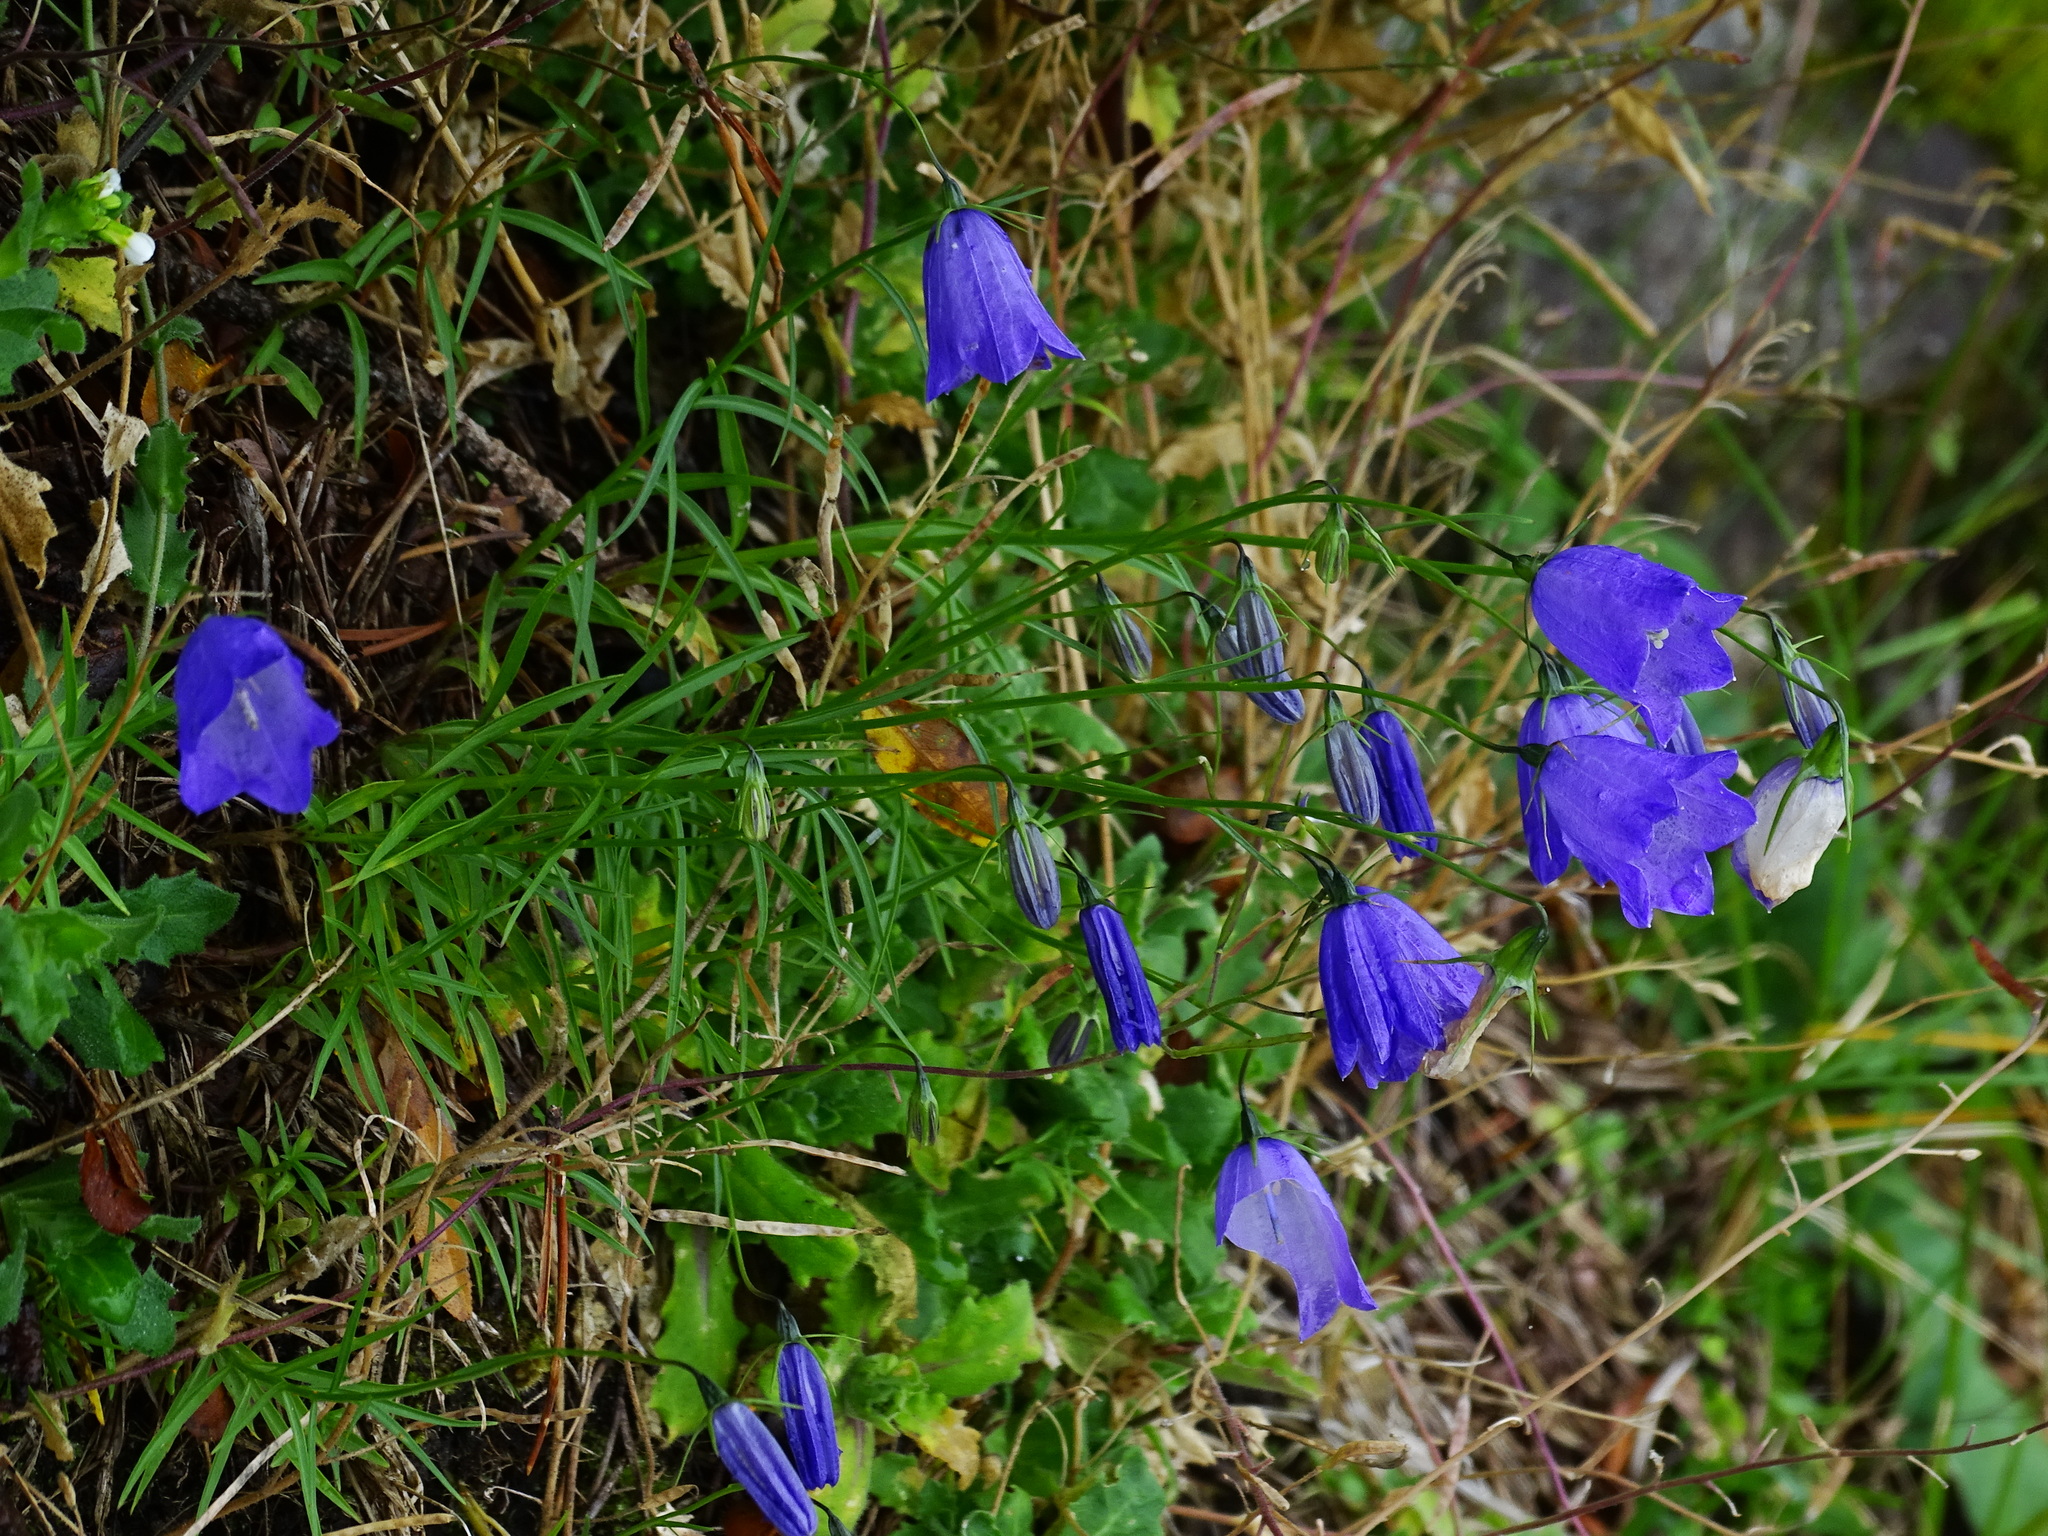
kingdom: Plantae
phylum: Tracheophyta
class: Magnoliopsida
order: Asterales
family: Campanulaceae
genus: Campanula
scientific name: Campanula scheuchzeri
